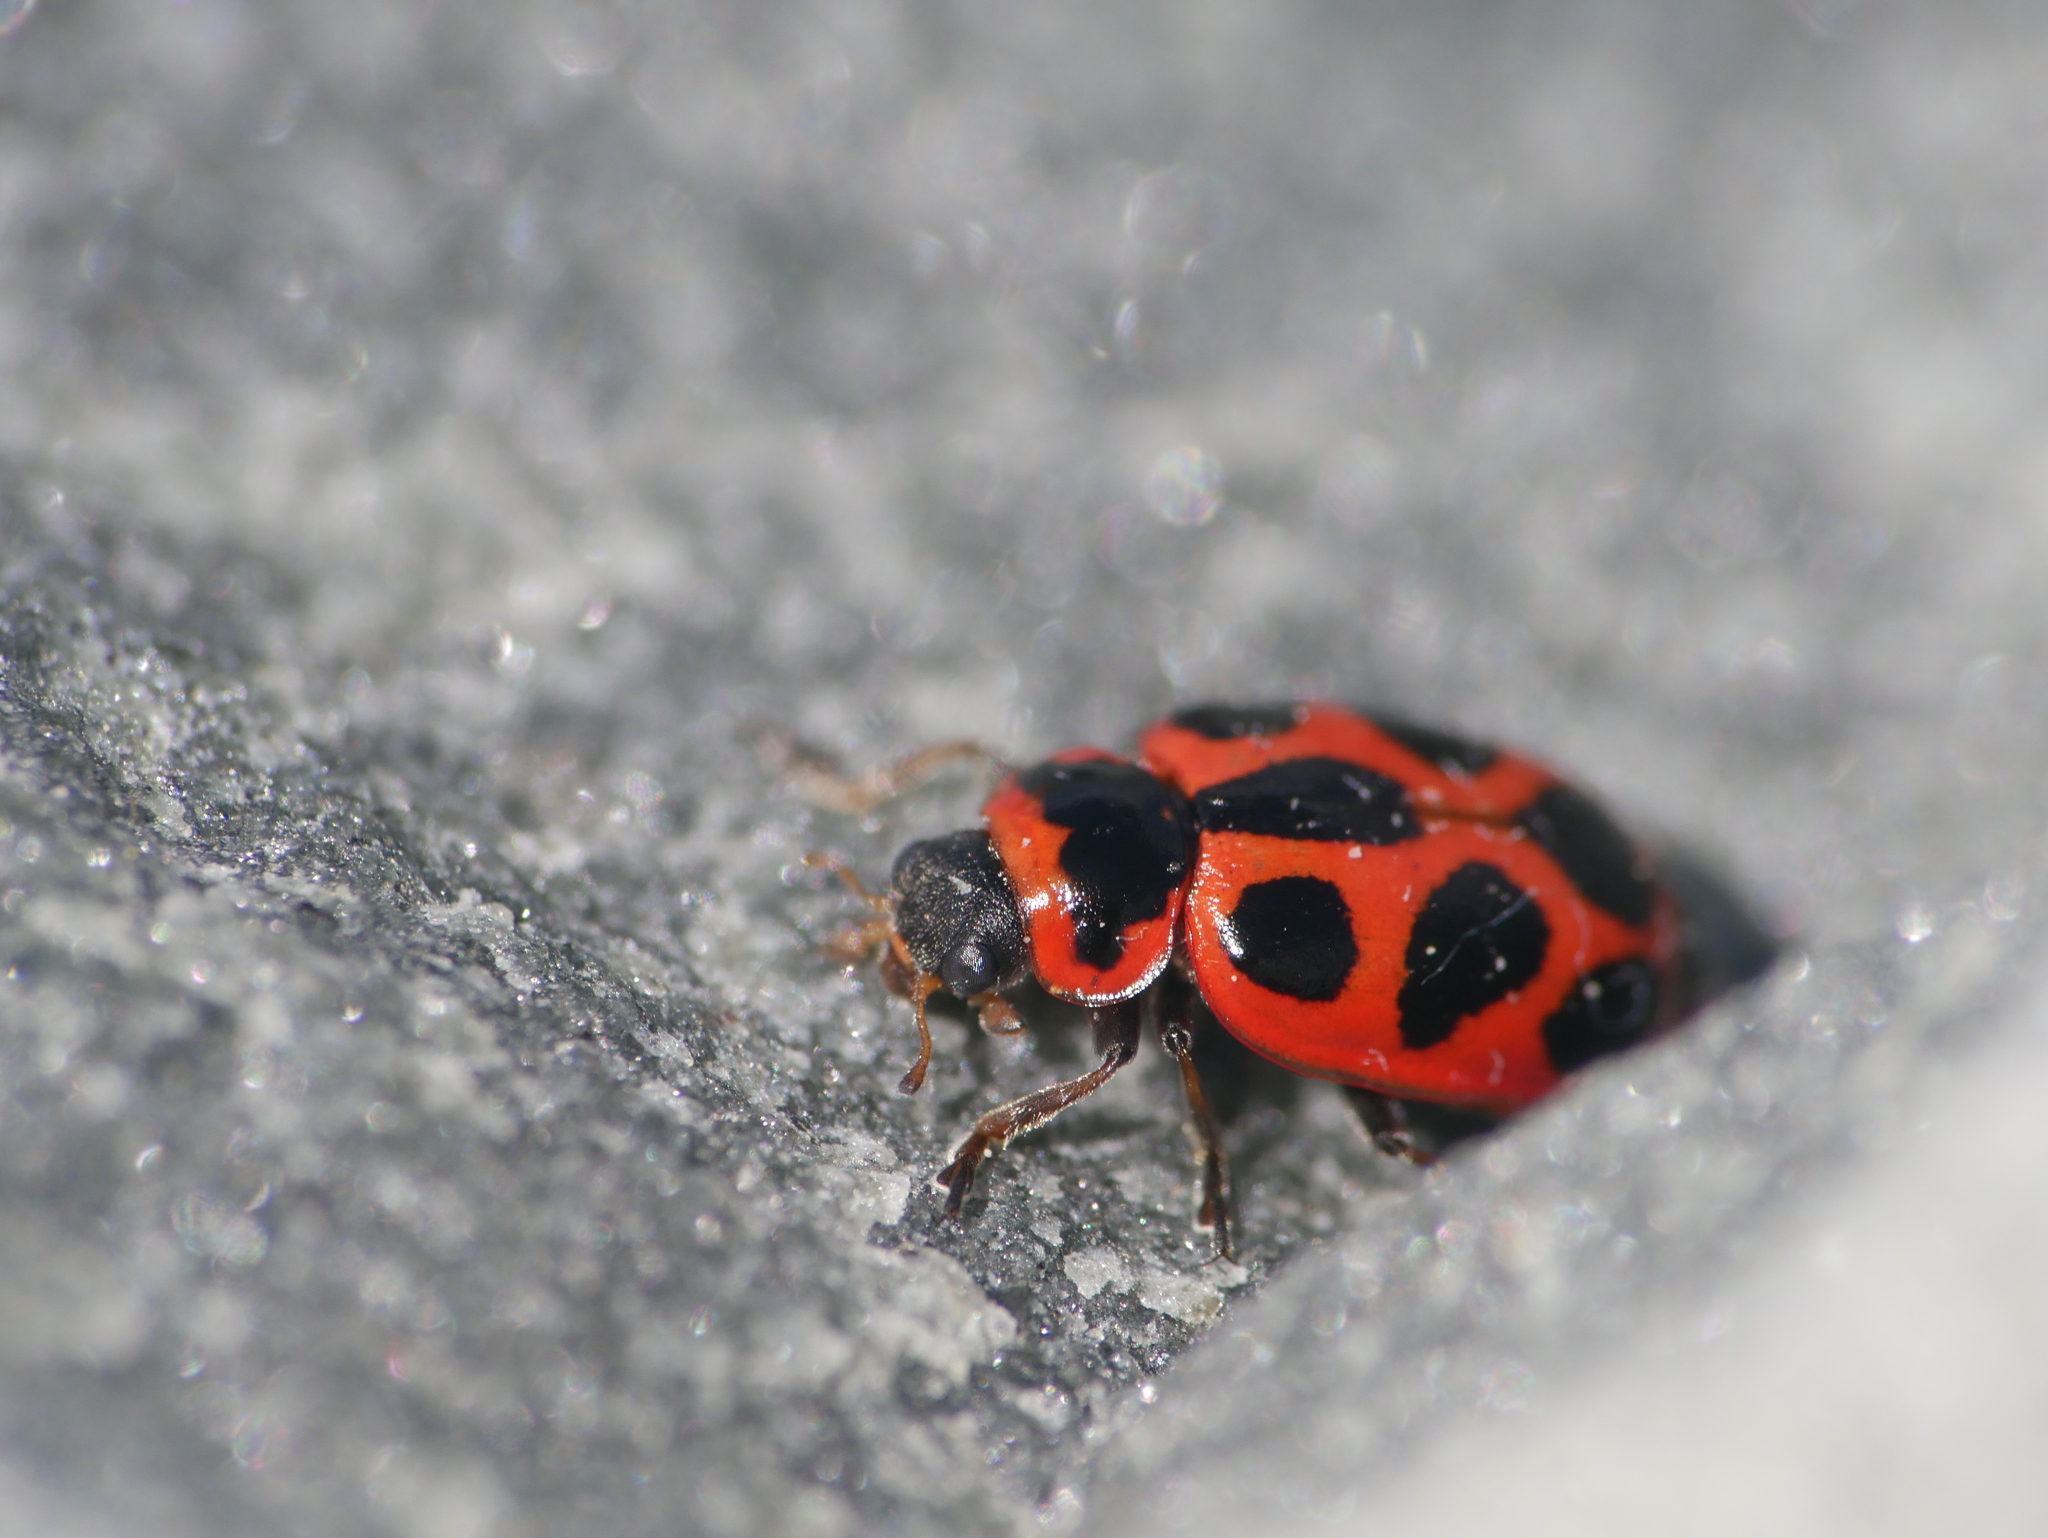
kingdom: Animalia
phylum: Arthropoda
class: Insecta
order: Coleoptera
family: Coccinellidae
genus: Naemia
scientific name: Naemia seriata
